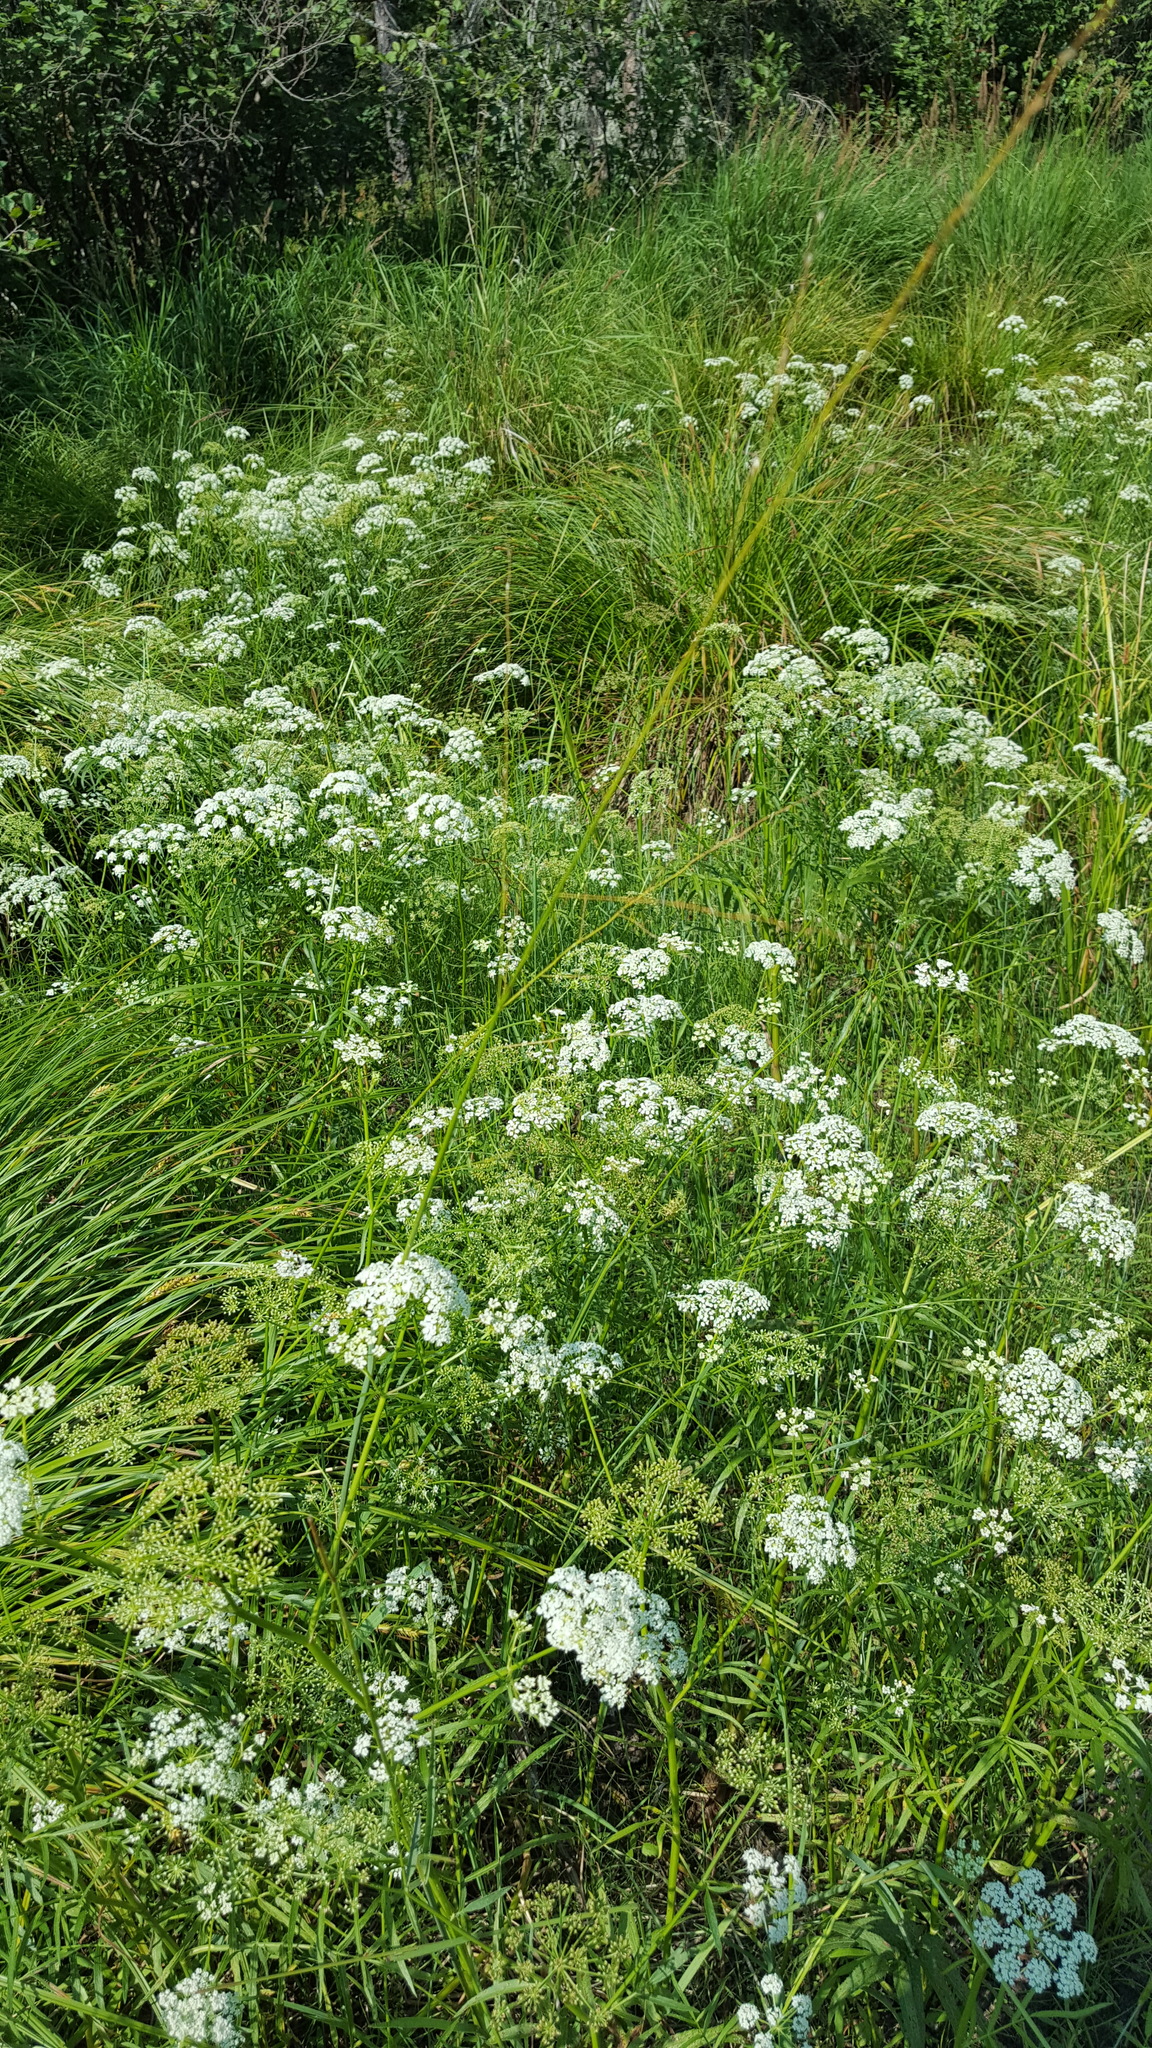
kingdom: Plantae
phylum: Tracheophyta
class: Magnoliopsida
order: Apiales
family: Apiaceae
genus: Sium
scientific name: Sium suave
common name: Hemlock water-parsnip
